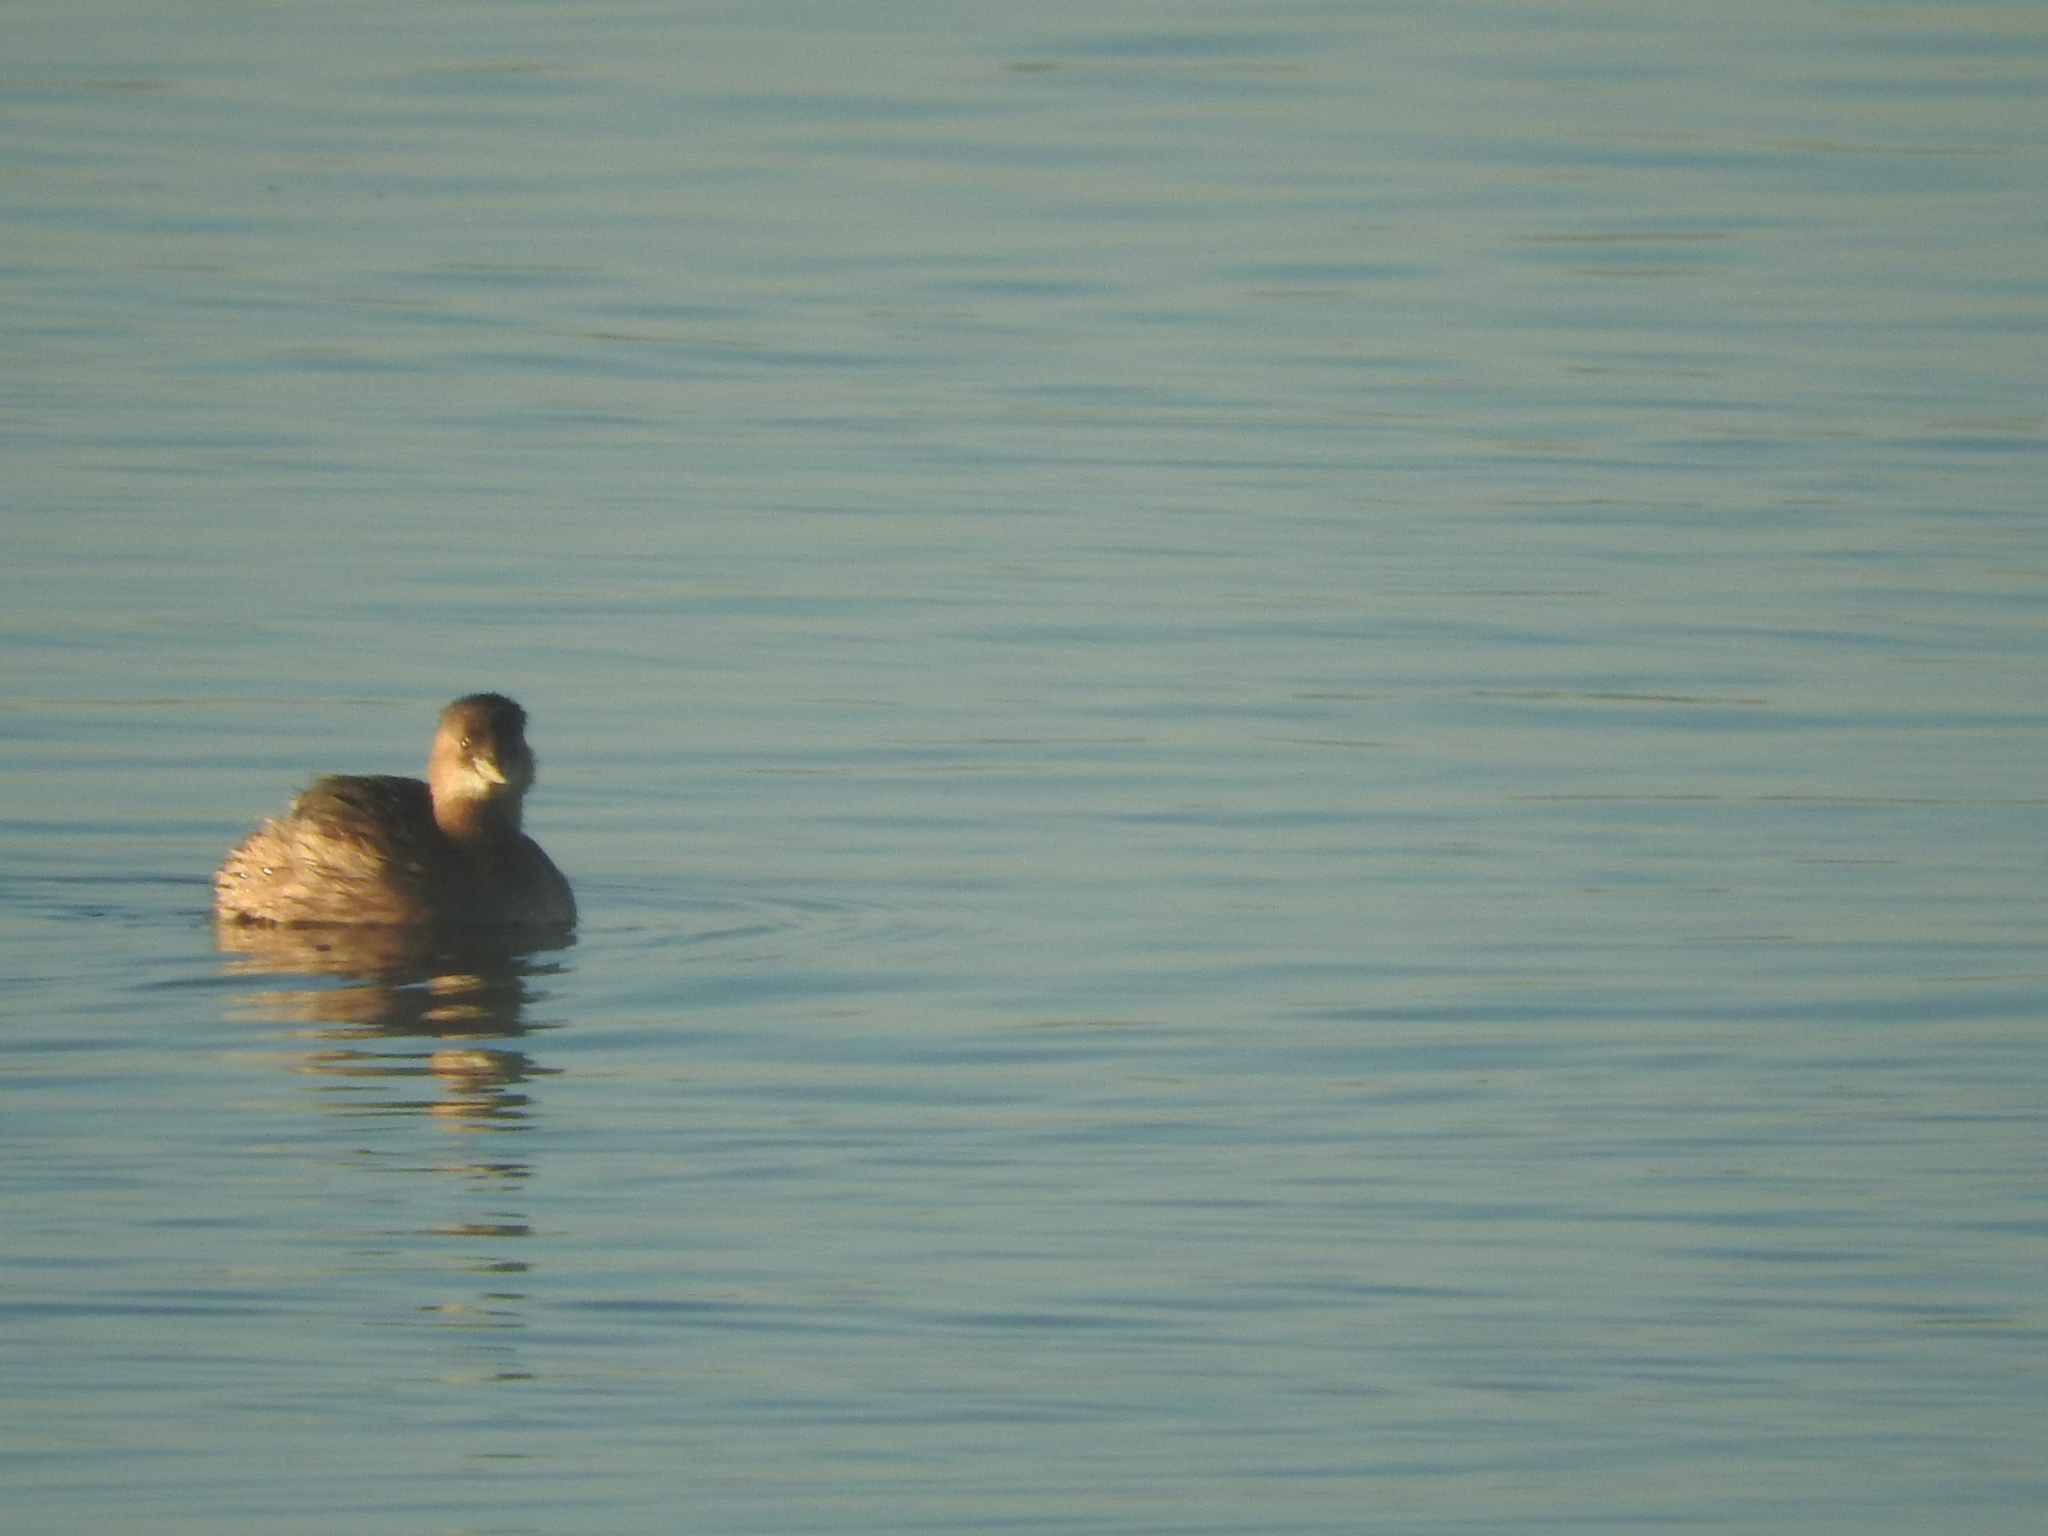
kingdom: Animalia
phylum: Chordata
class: Aves
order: Podicipediformes
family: Podicipedidae
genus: Tachybaptus
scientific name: Tachybaptus ruficollis
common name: Little grebe
